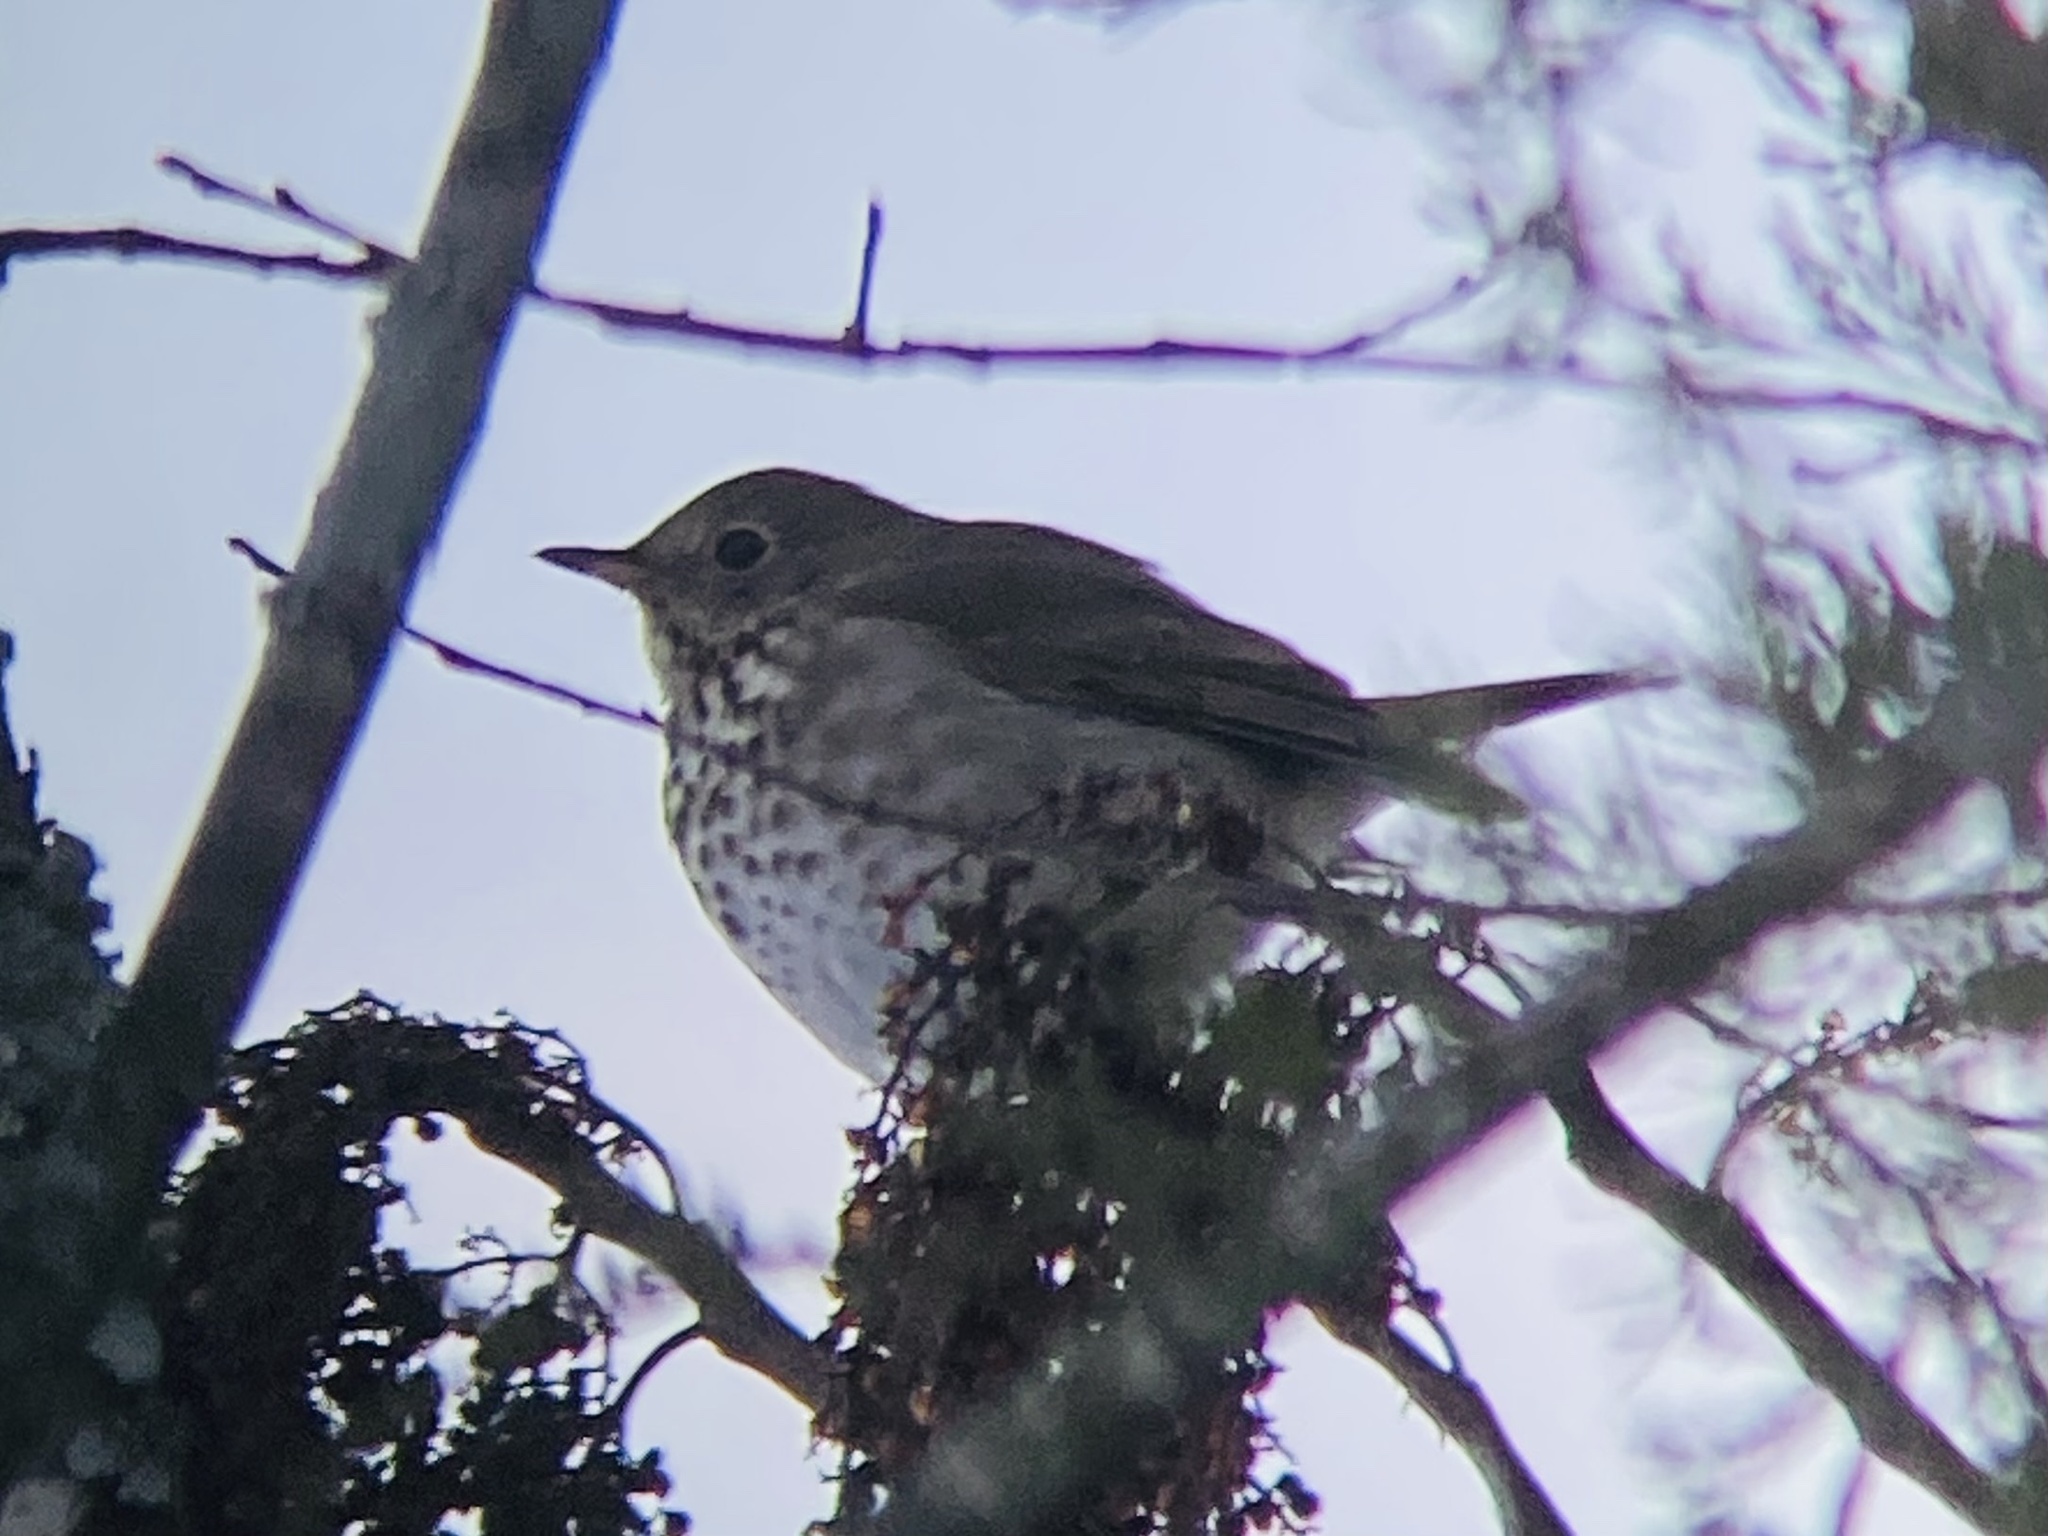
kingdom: Animalia
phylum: Chordata
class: Aves
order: Passeriformes
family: Turdidae
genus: Catharus
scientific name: Catharus guttatus
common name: Hermit thrush
